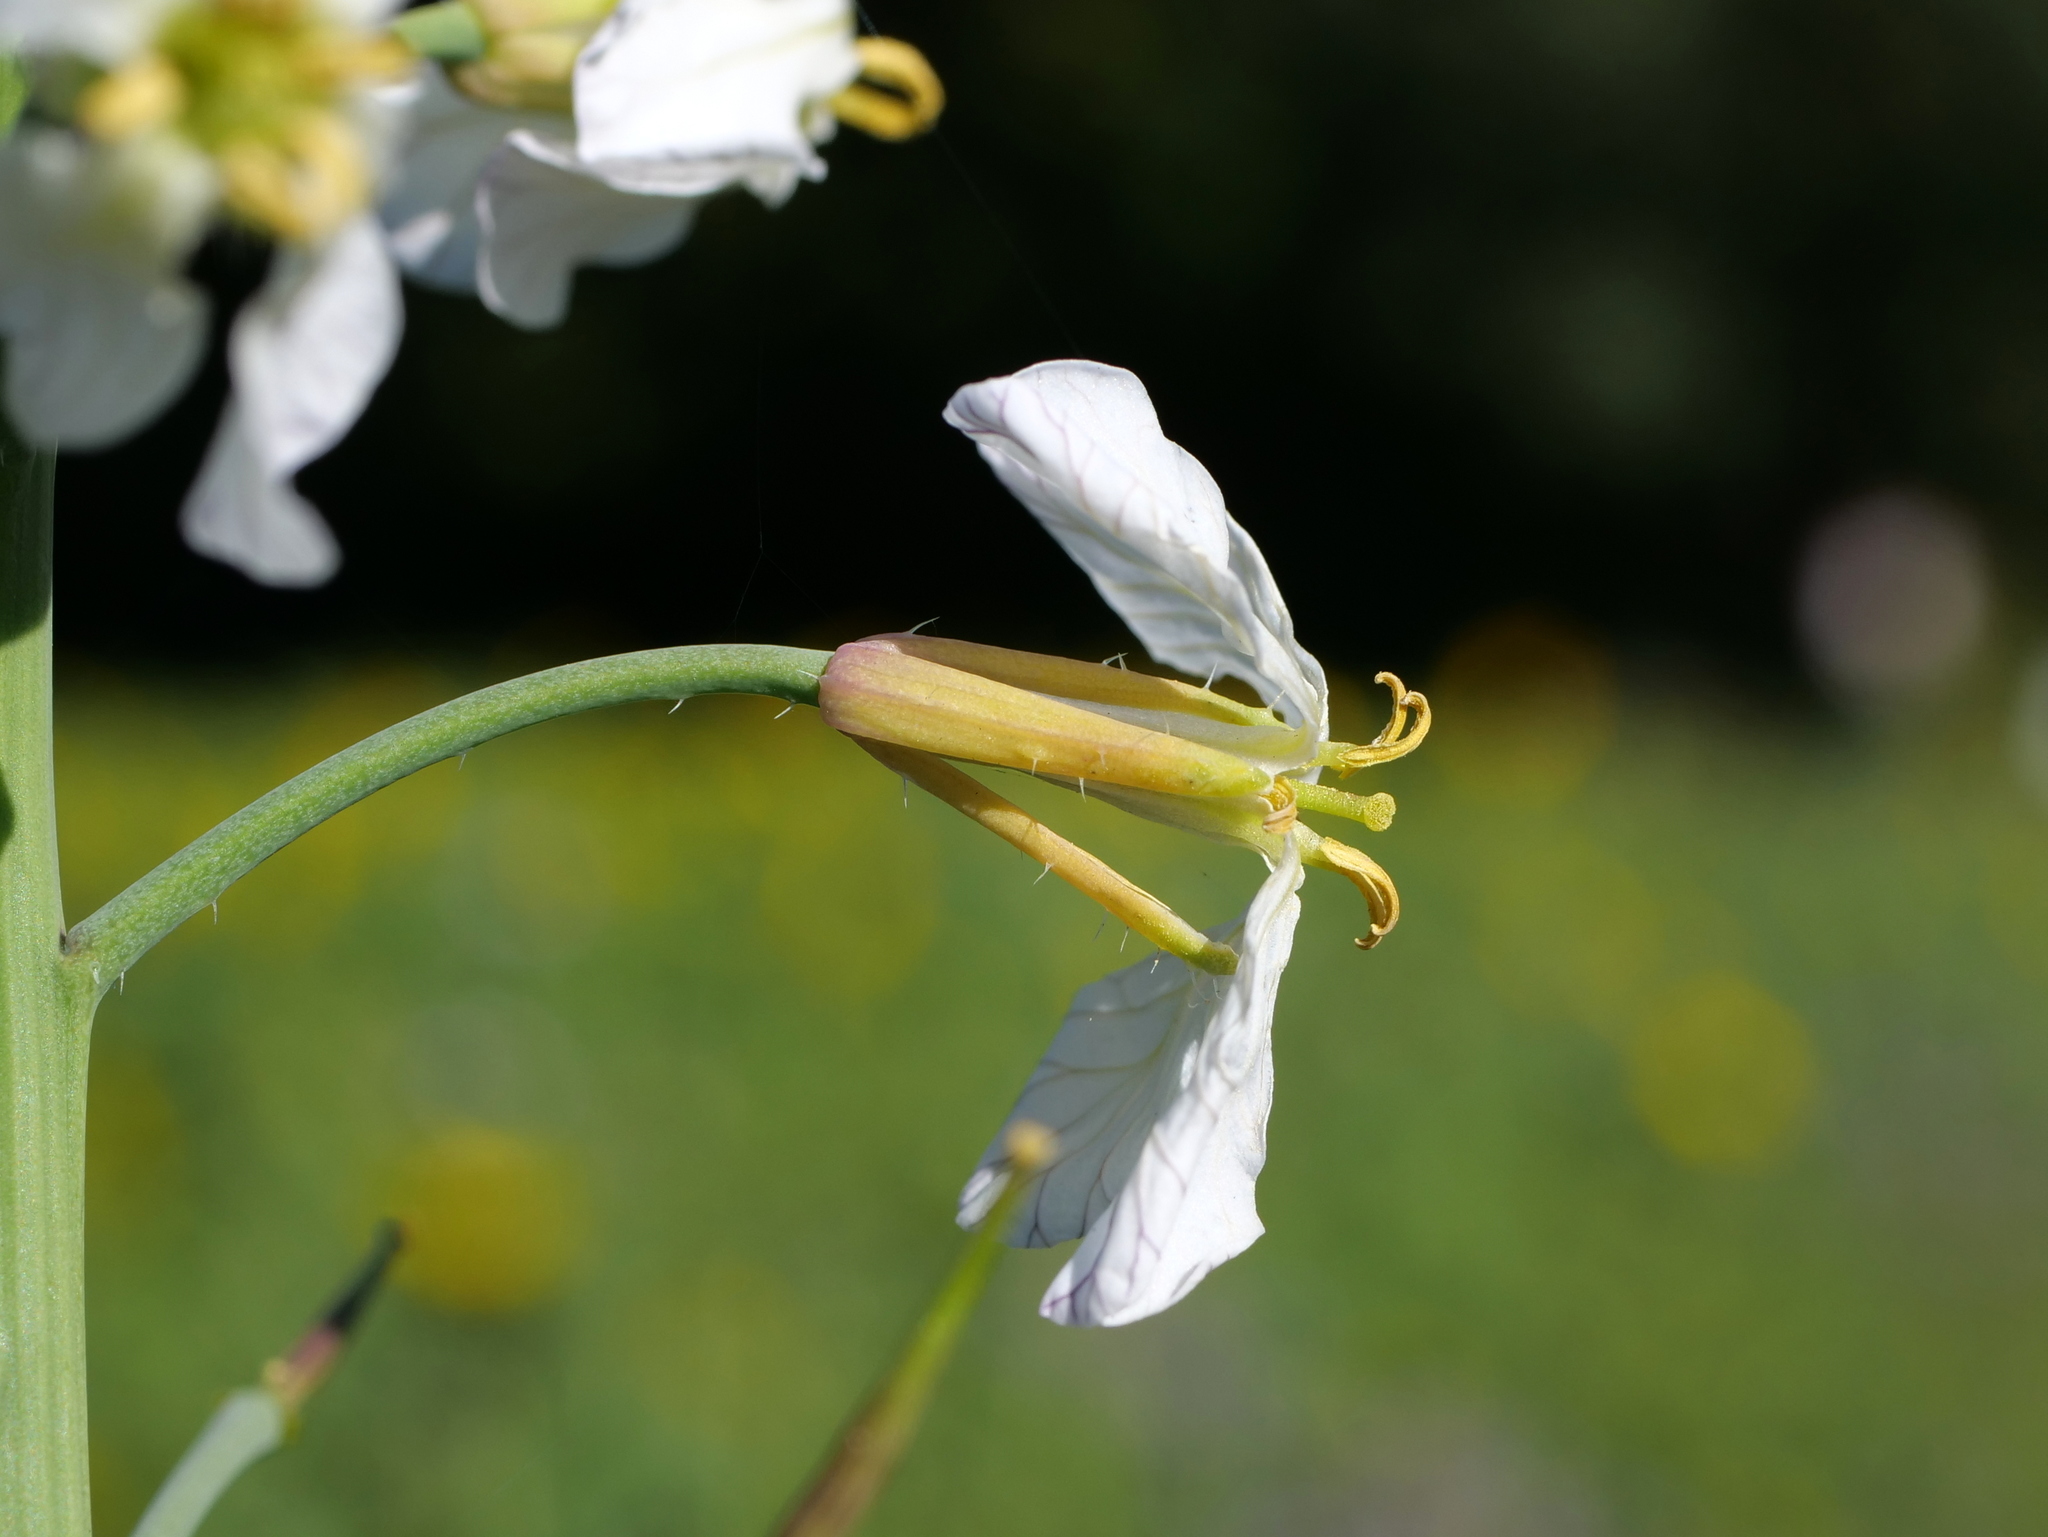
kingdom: Plantae
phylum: Tracheophyta
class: Magnoliopsida
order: Brassicales
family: Brassicaceae
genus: Raphanus
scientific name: Raphanus sativus
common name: Cultivated radish
